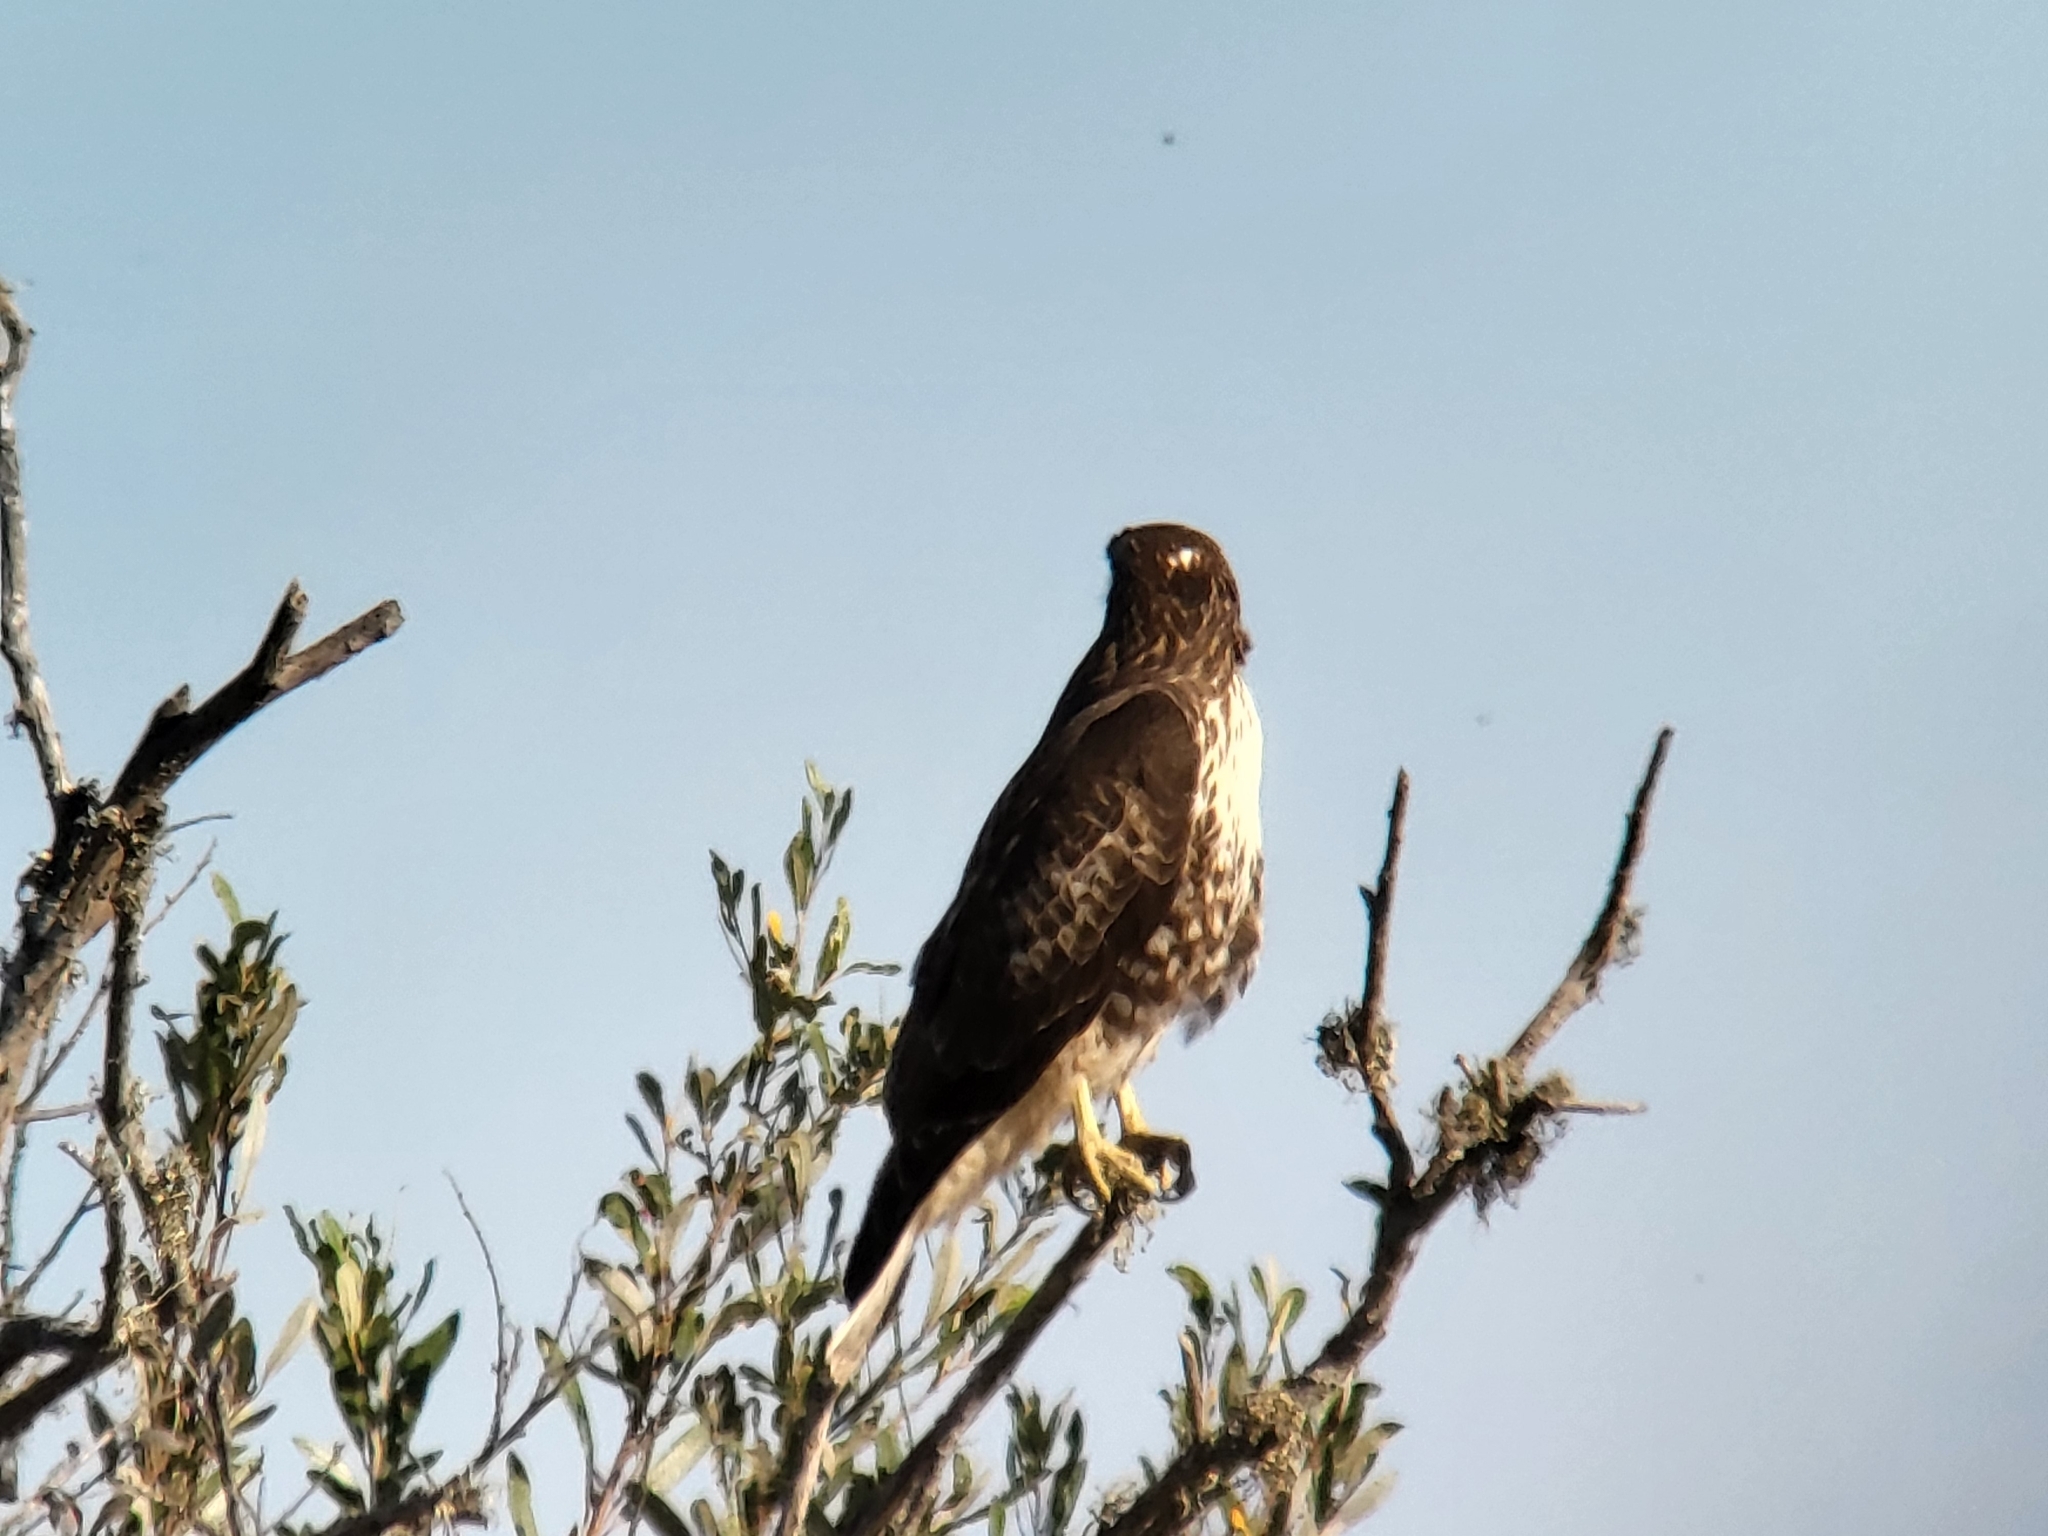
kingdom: Animalia
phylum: Chordata
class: Aves
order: Accipitriformes
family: Accipitridae
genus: Buteo
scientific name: Buteo jamaicensis
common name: Red-tailed hawk
